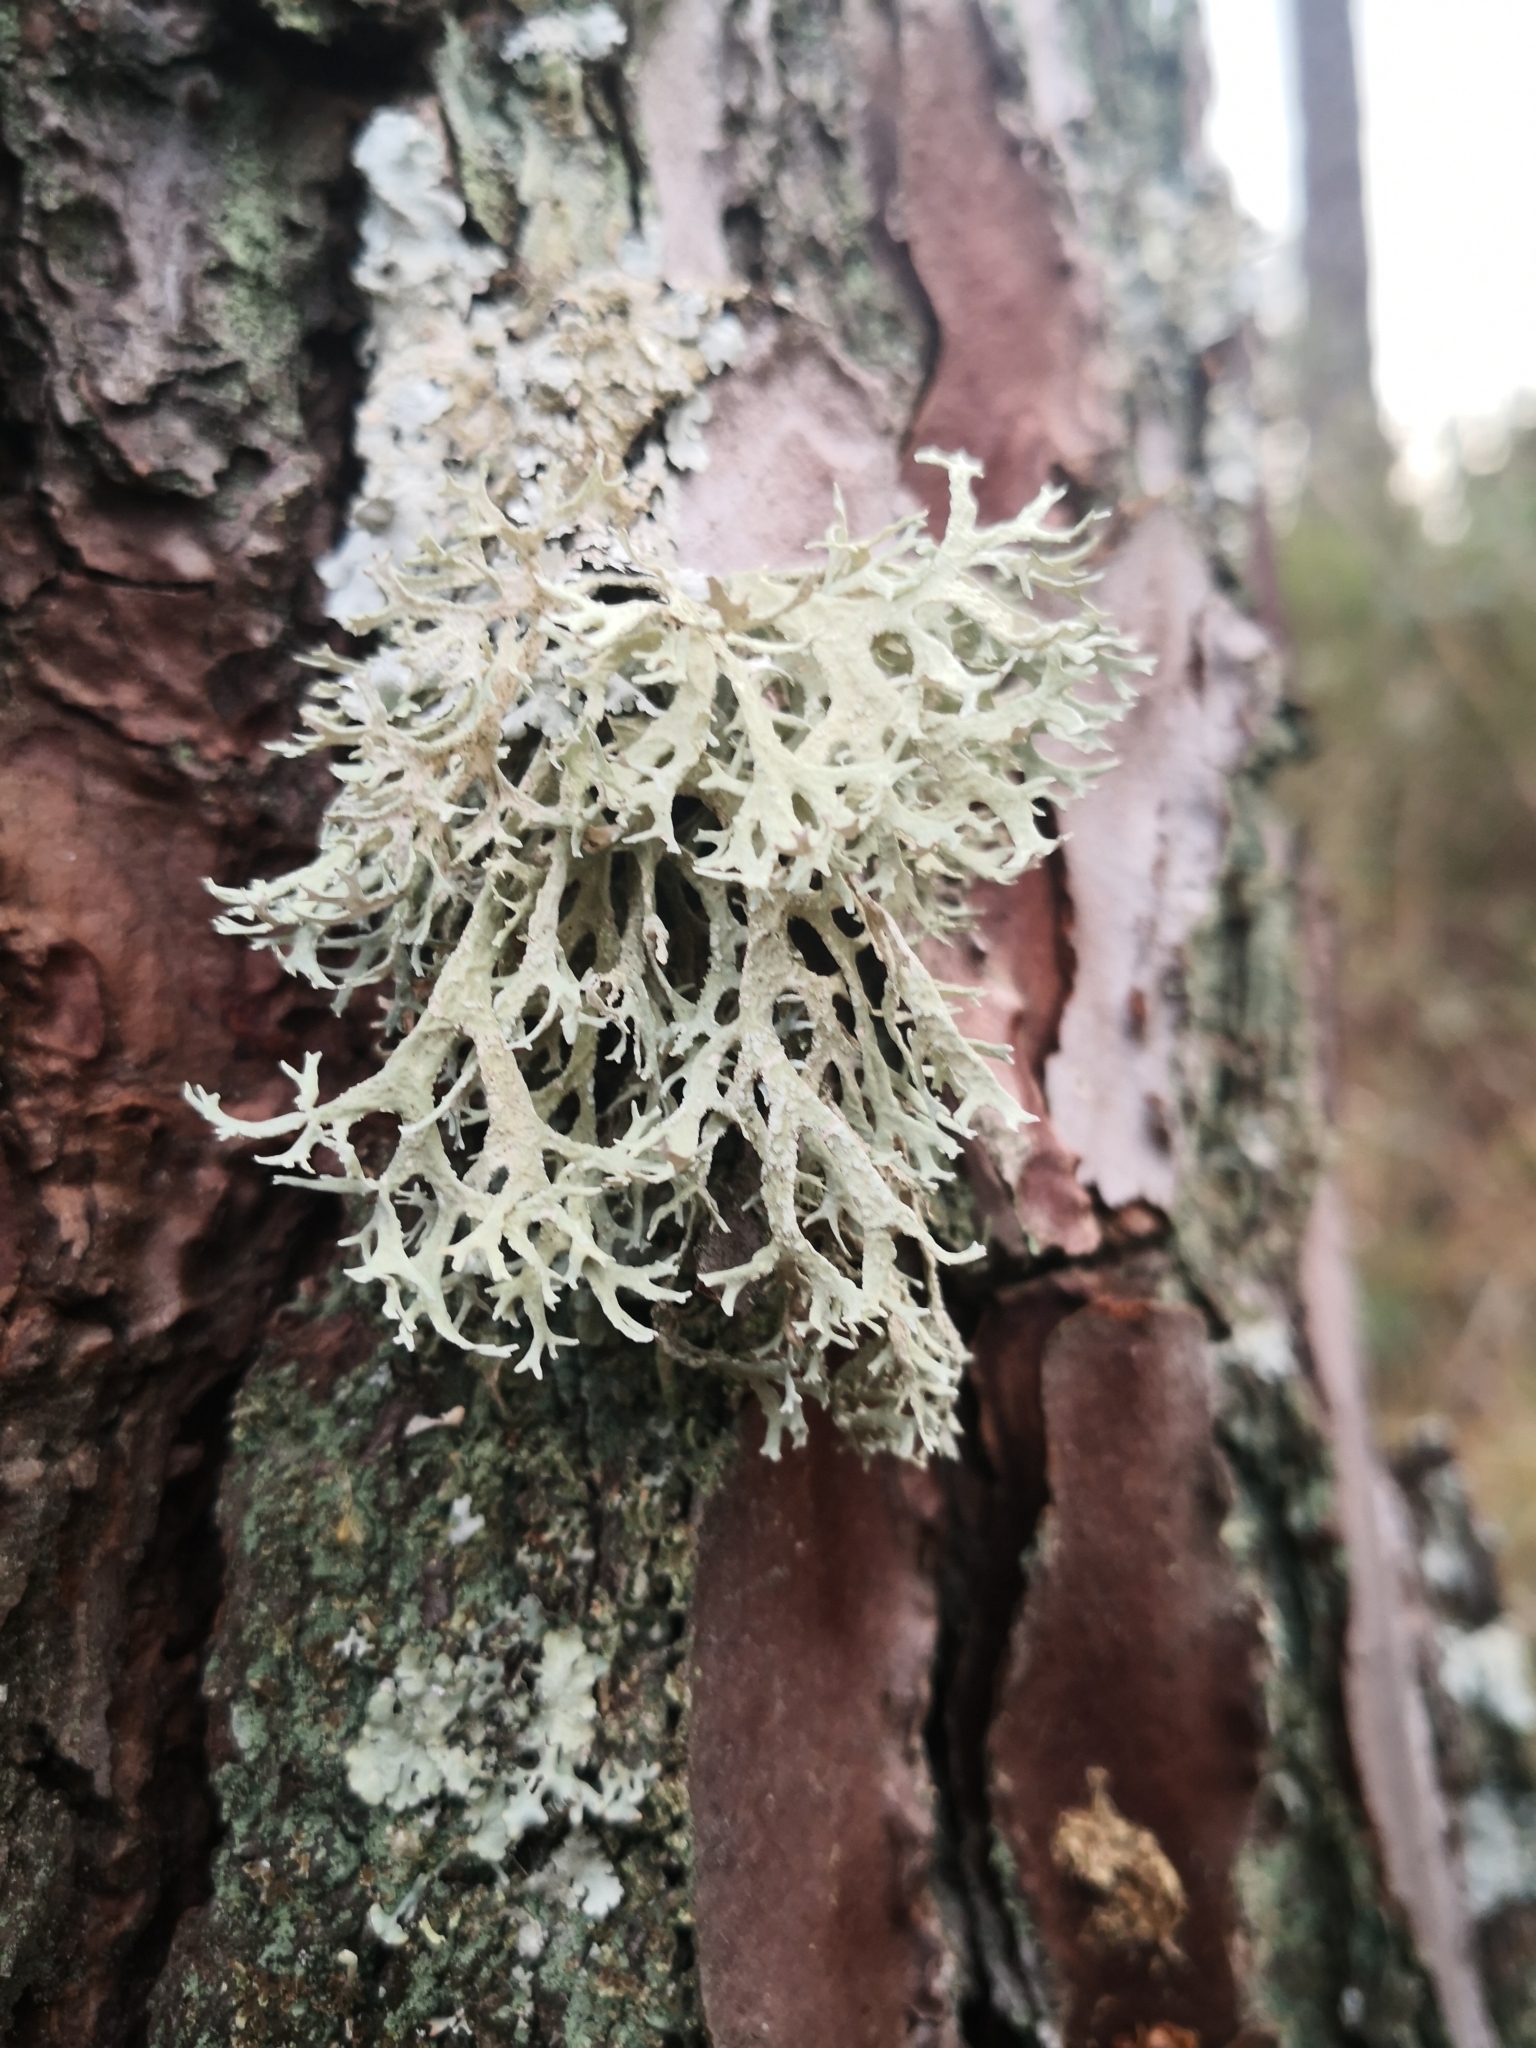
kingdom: Fungi
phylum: Ascomycota
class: Lecanoromycetes
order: Lecanorales
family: Parmeliaceae
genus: Evernia
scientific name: Evernia prunastri
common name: Oak moss
